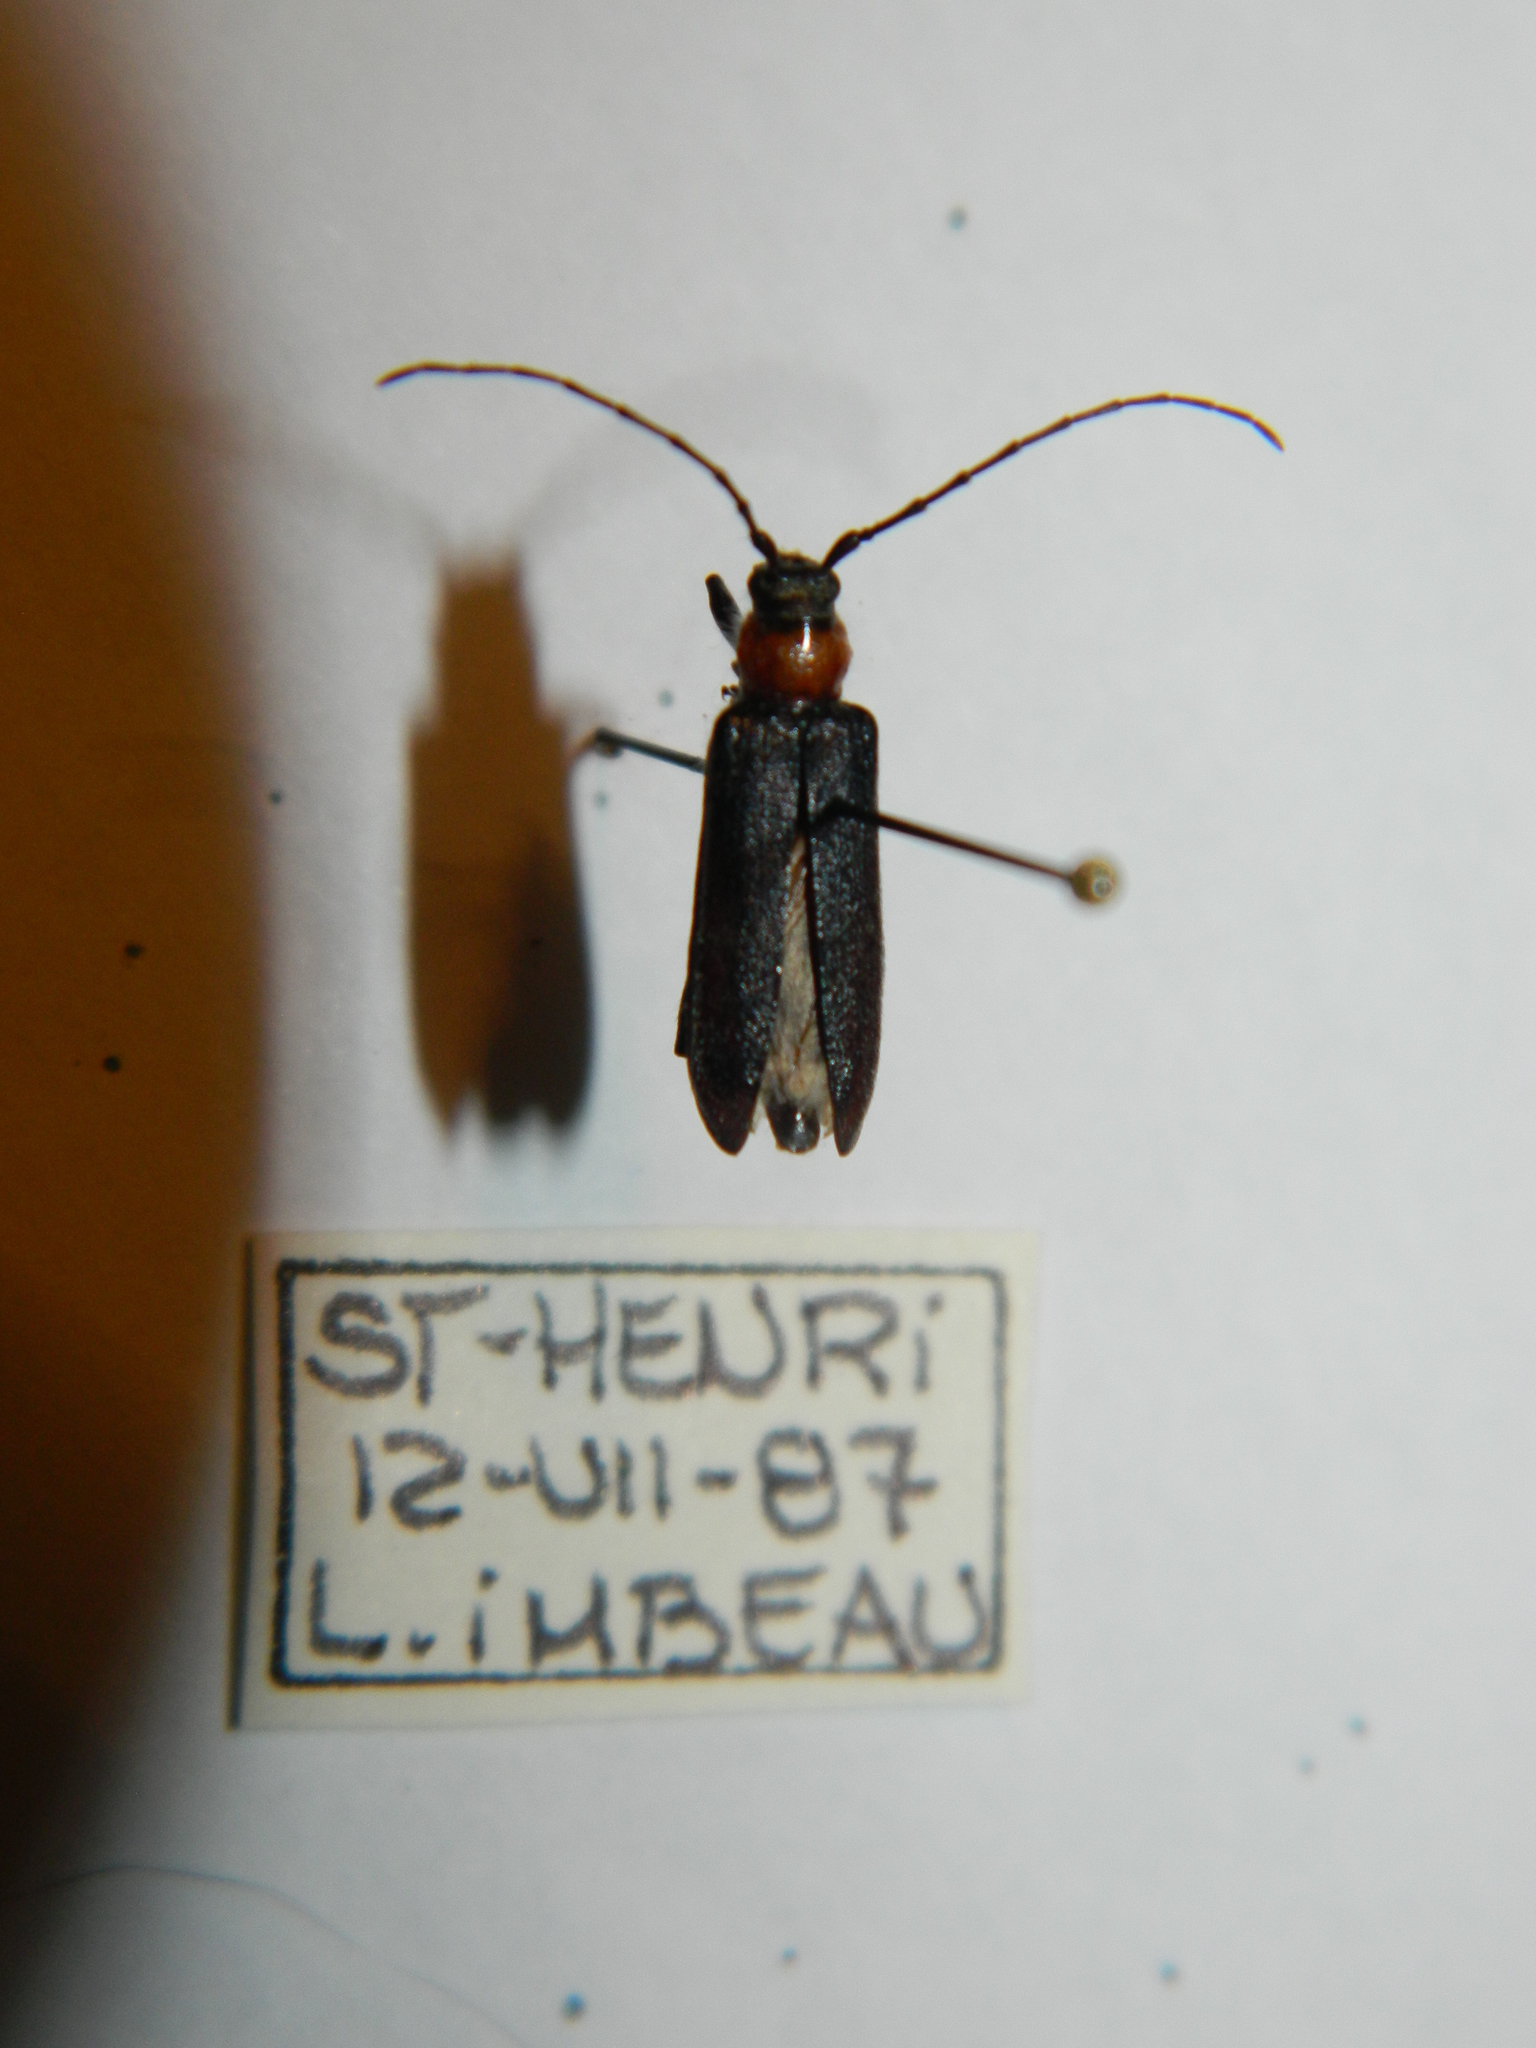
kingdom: Animalia
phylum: Arthropoda
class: Insecta
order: Coleoptera
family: Cerambycidae
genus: Pronocera
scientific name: Pronocera collaris
